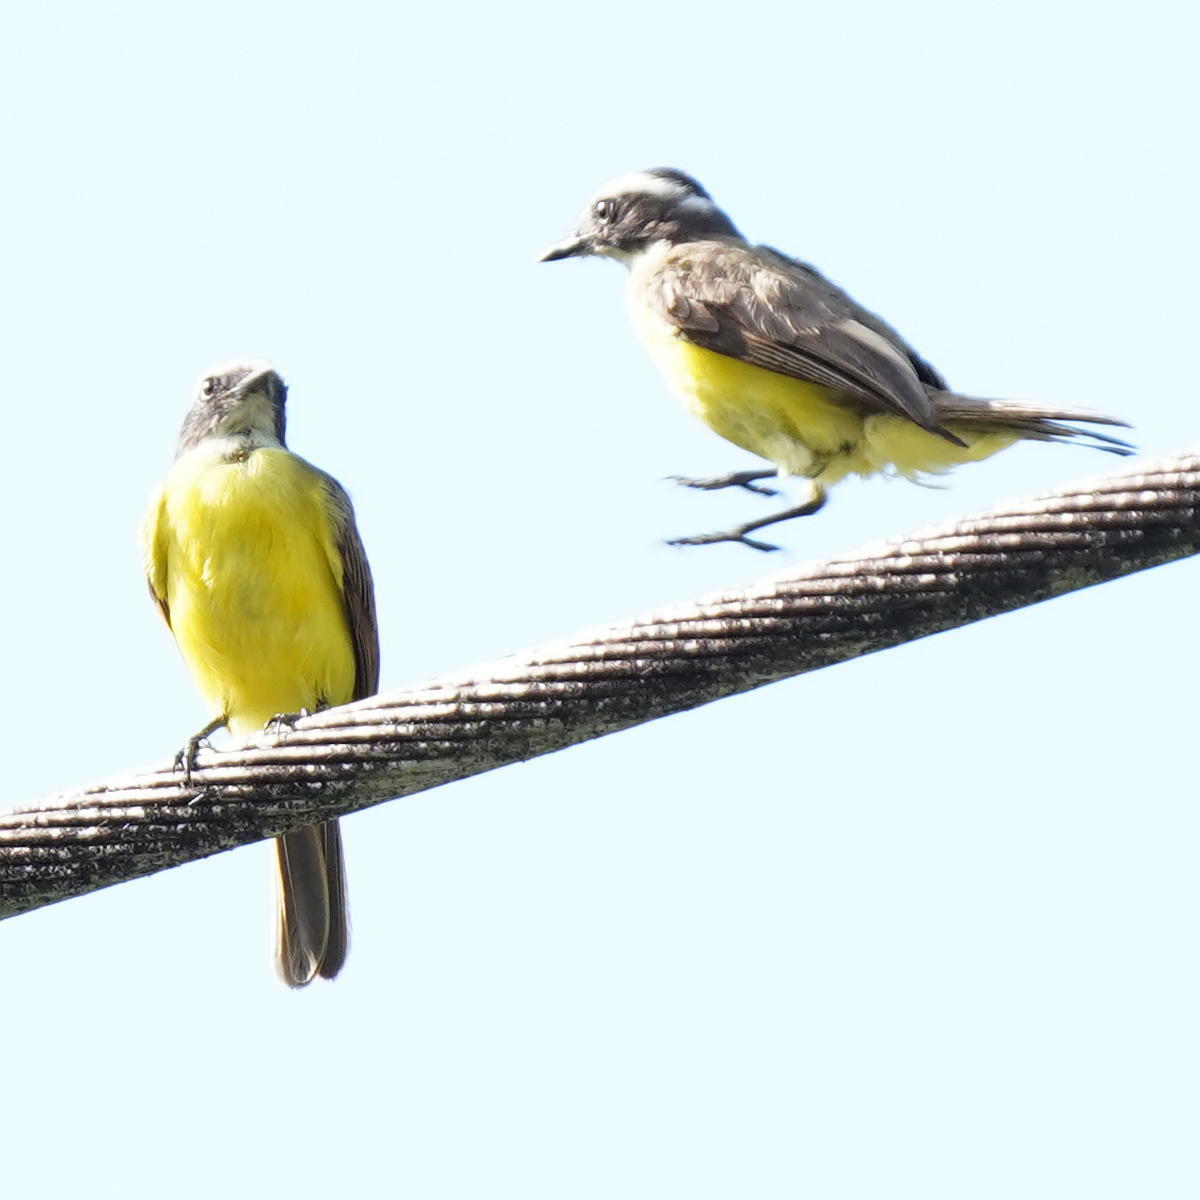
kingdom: Animalia
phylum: Chordata
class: Aves
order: Passeriformes
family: Tyrannidae
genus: Myiozetetes
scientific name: Myiozetetes cayanensis
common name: Rusty-margined flycatcher
